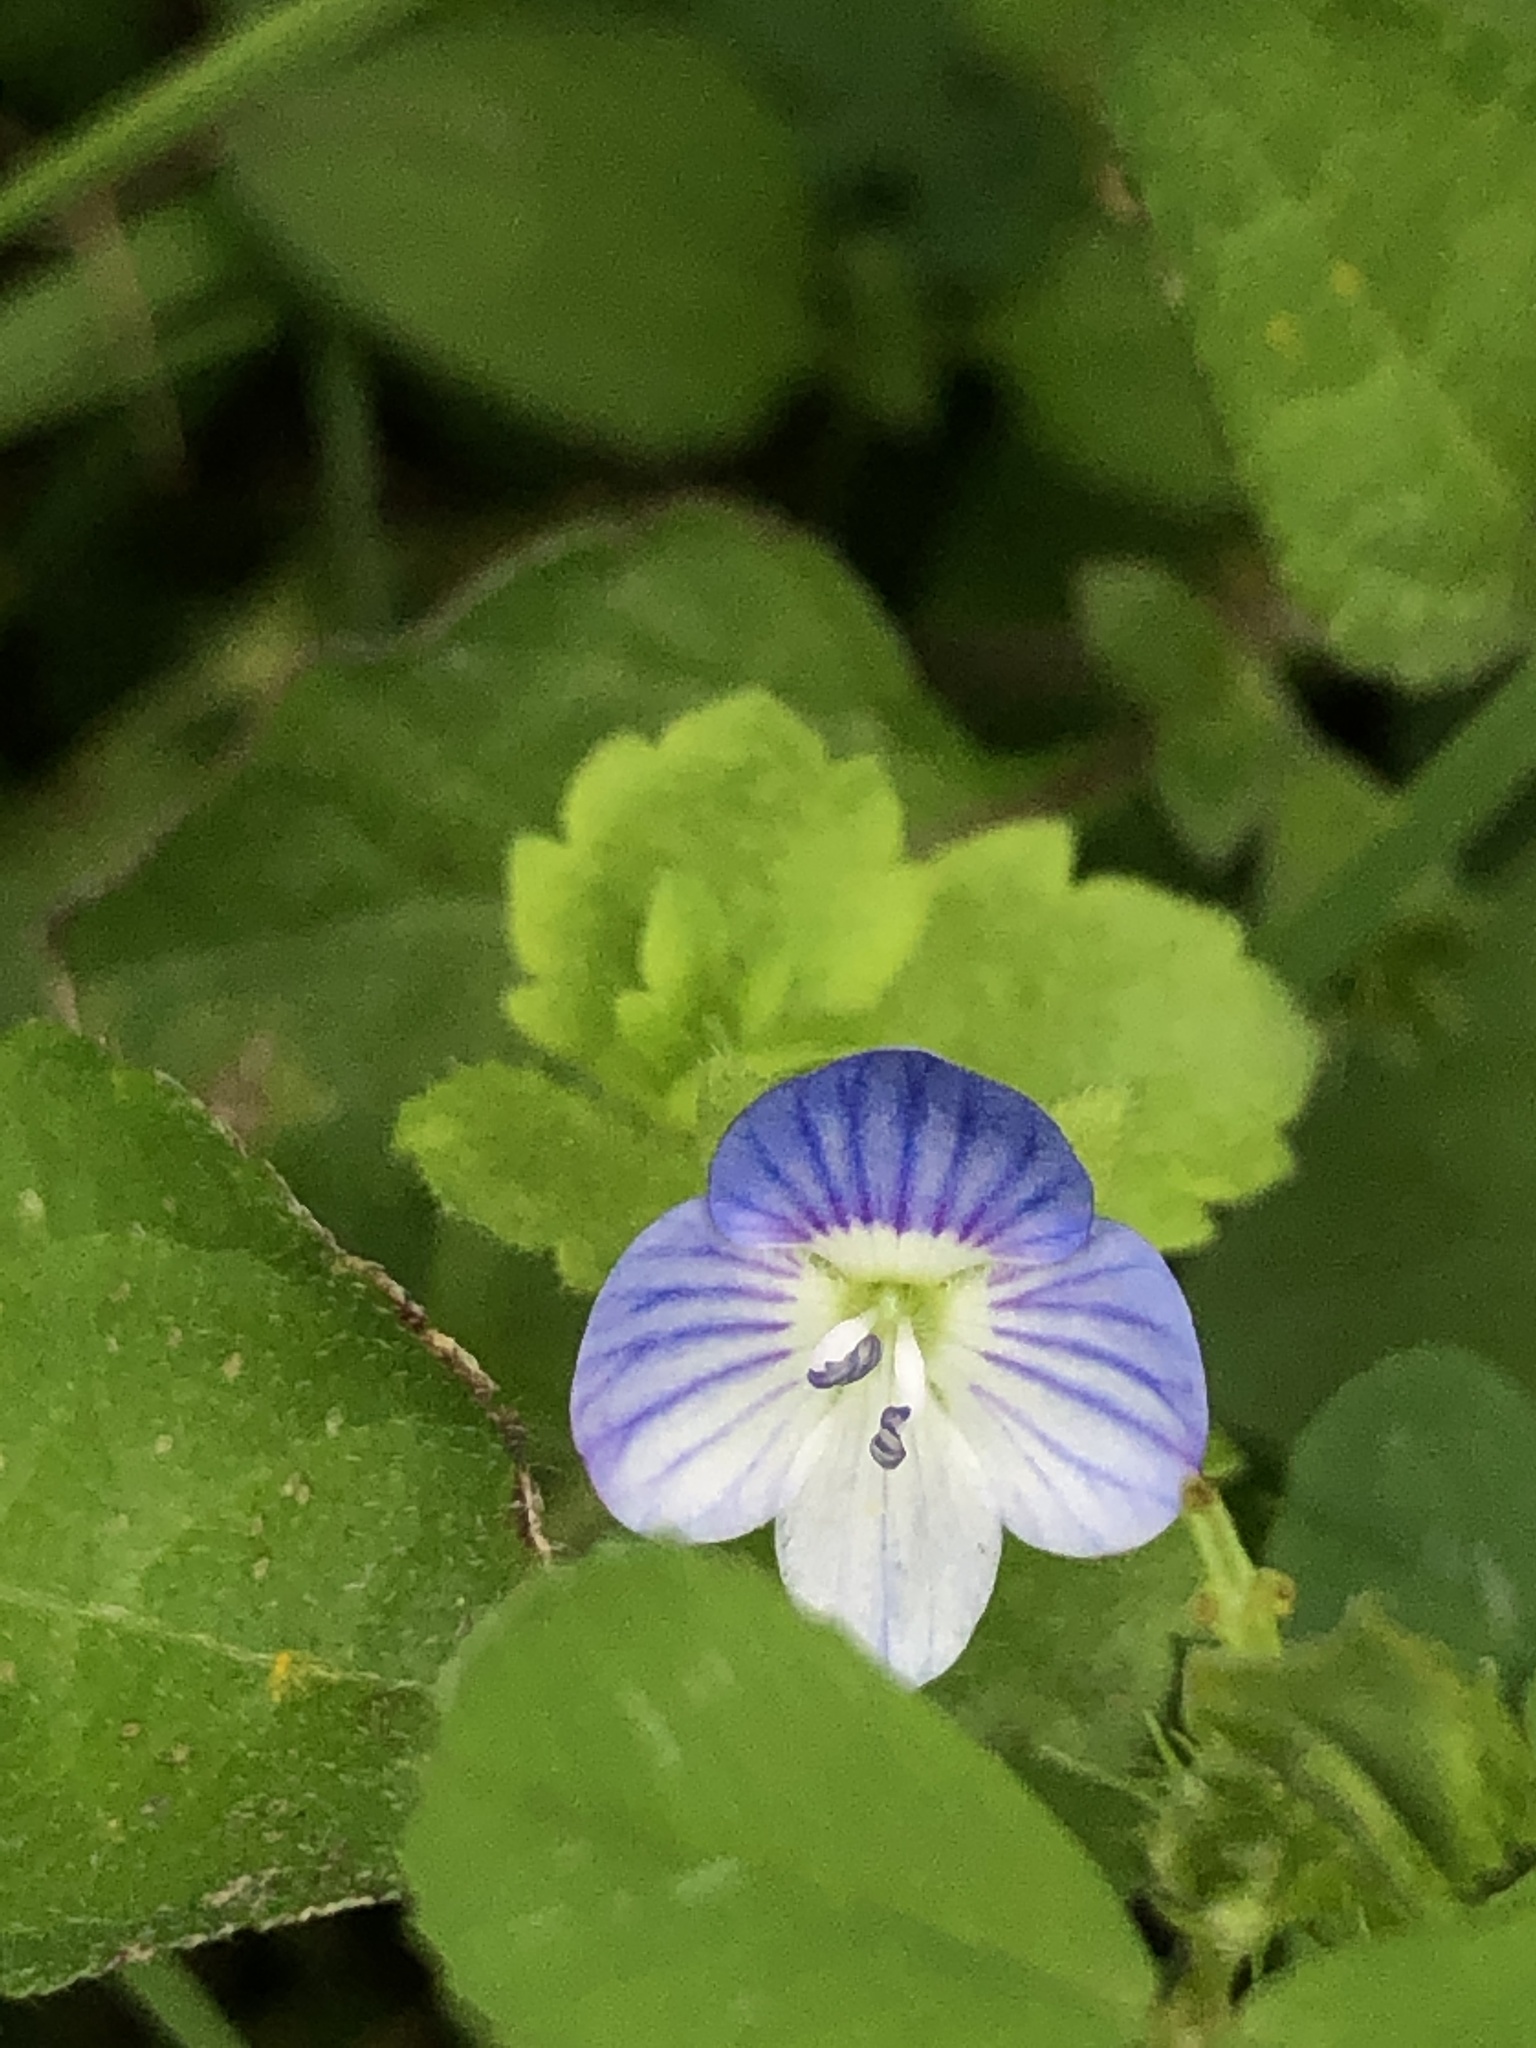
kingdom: Plantae
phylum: Tracheophyta
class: Magnoliopsida
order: Lamiales
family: Plantaginaceae
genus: Veronica
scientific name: Veronica persica
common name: Common field-speedwell
